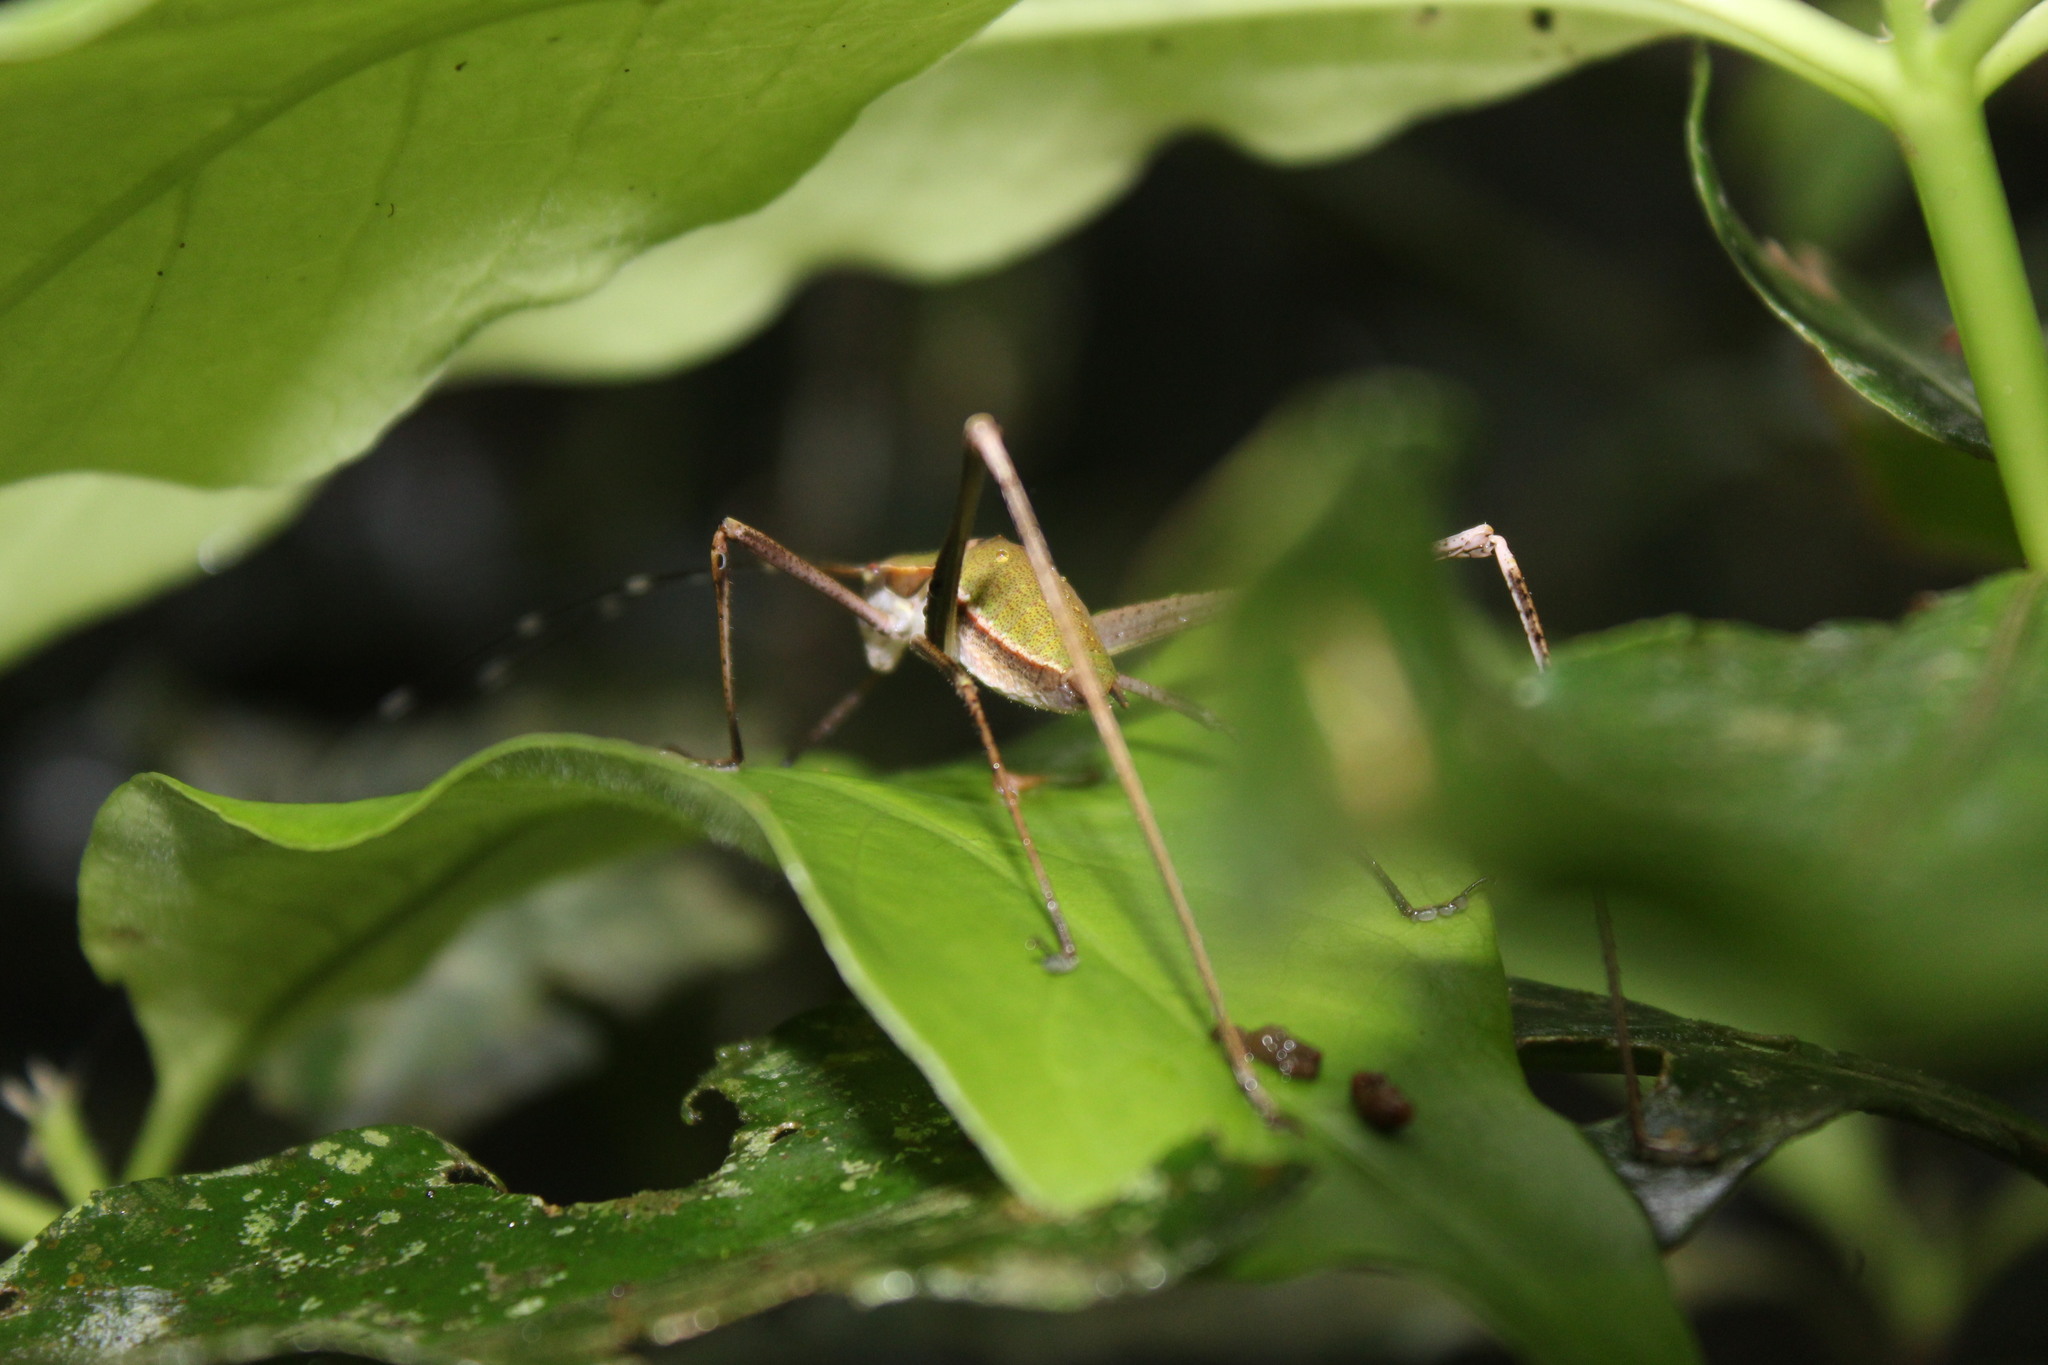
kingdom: Animalia
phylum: Arthropoda
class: Insecta
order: Orthoptera
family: Tettigoniidae
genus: Xenicola
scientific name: Xenicola brauni
